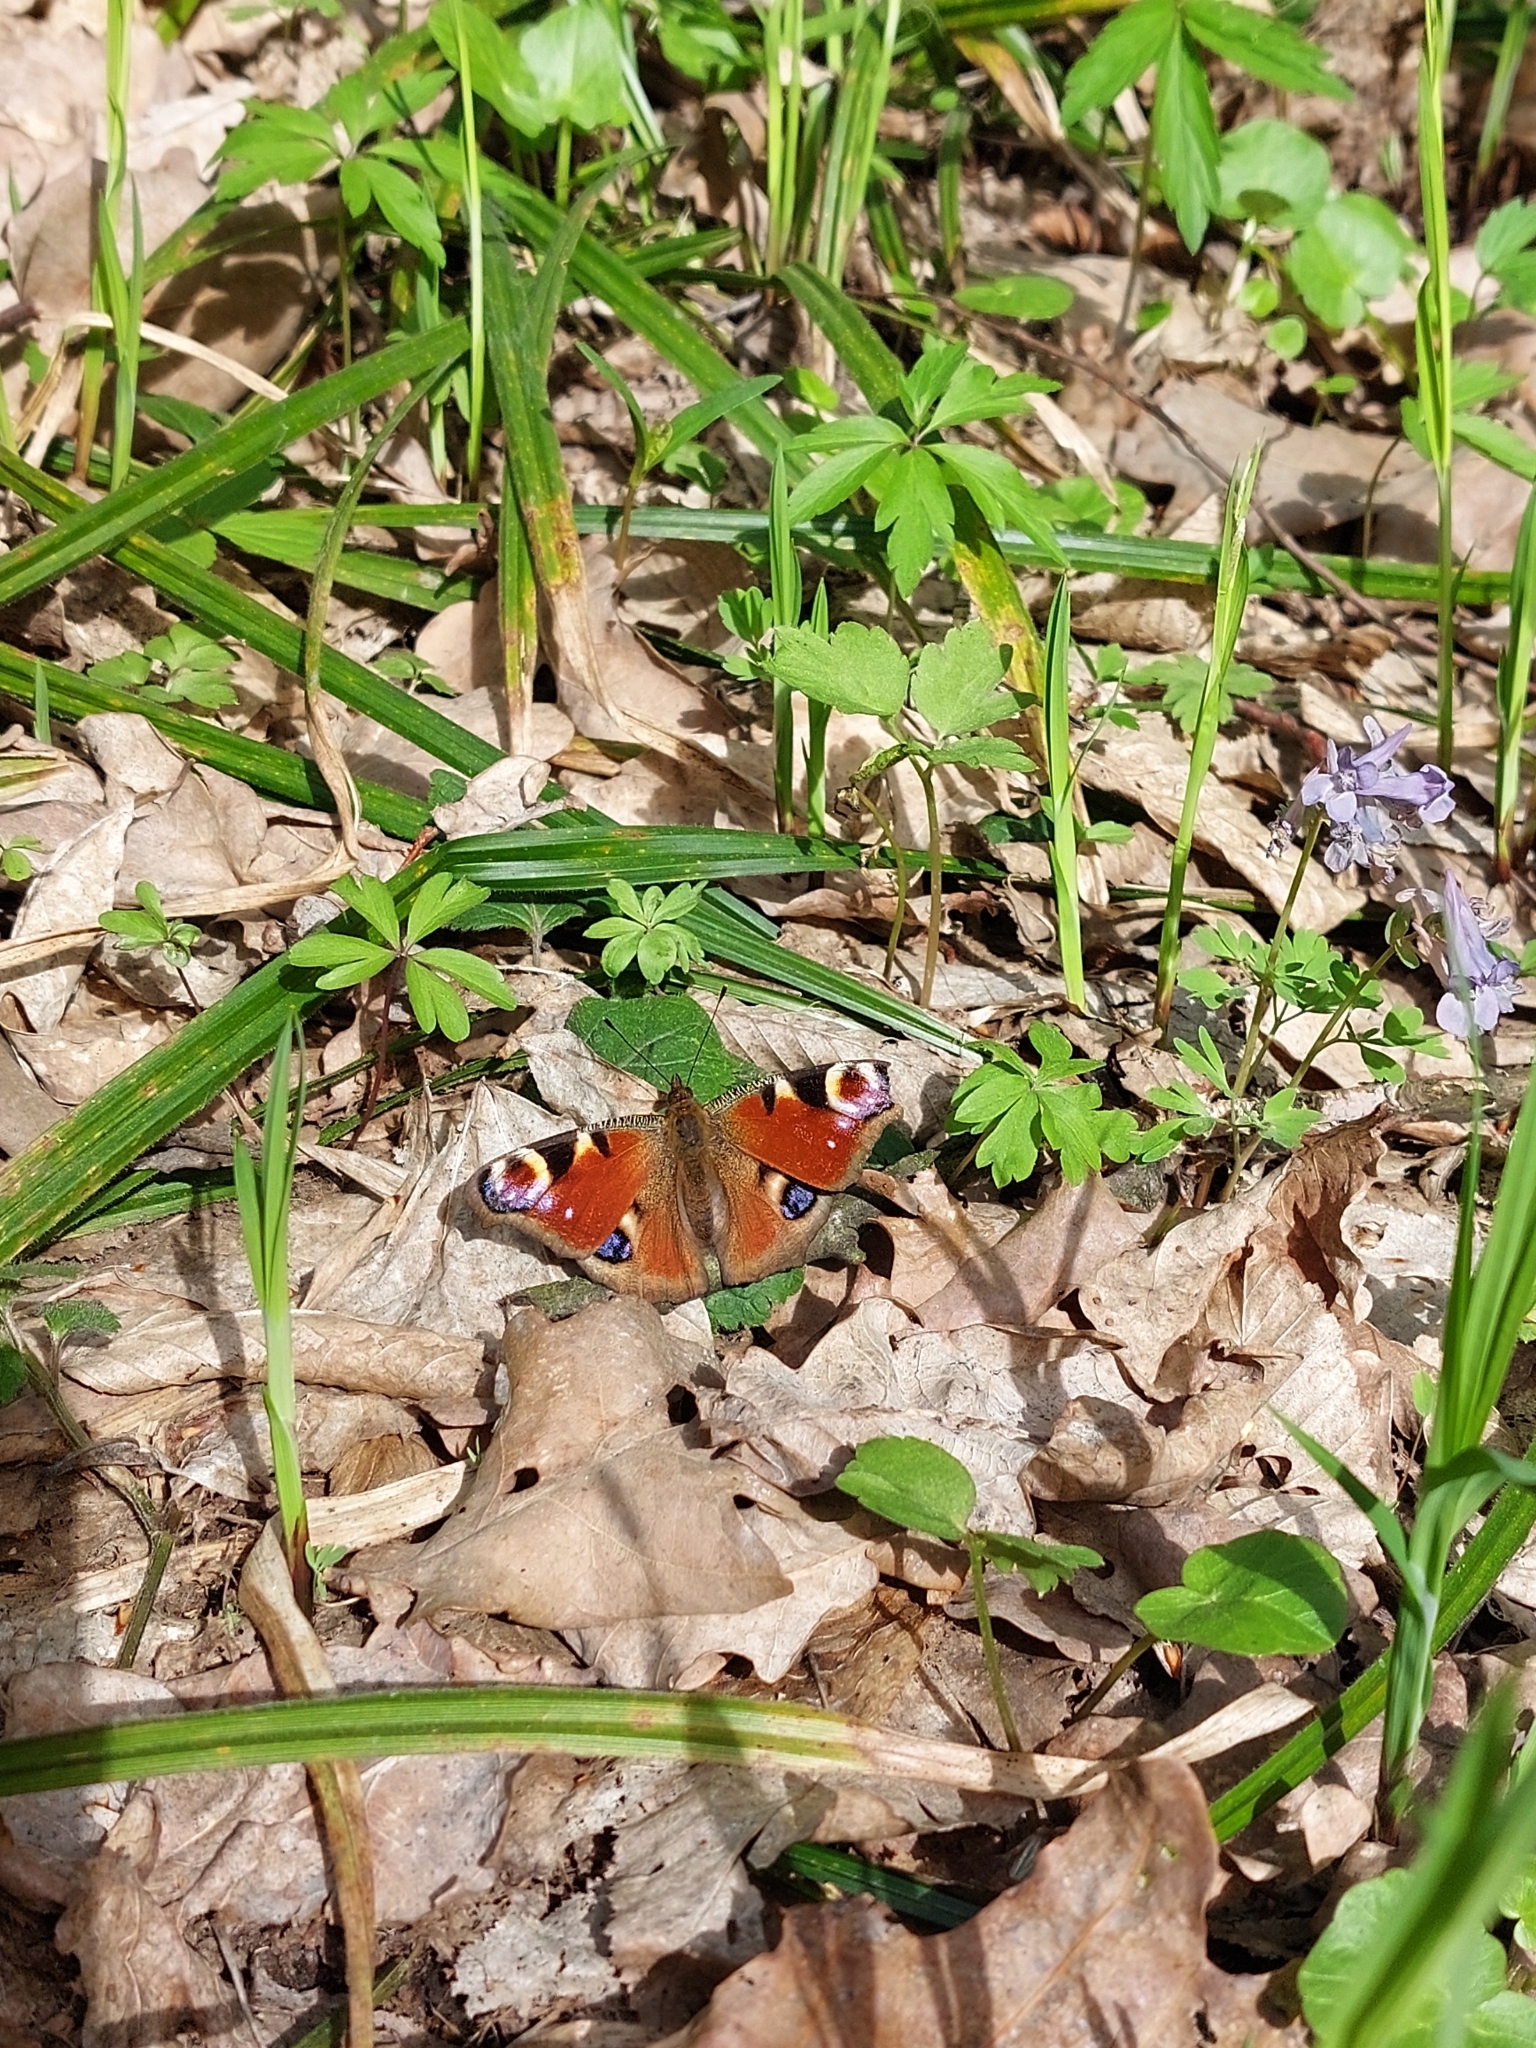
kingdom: Animalia
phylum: Arthropoda
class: Insecta
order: Lepidoptera
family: Nymphalidae
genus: Aglais
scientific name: Aglais io
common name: Peacock
